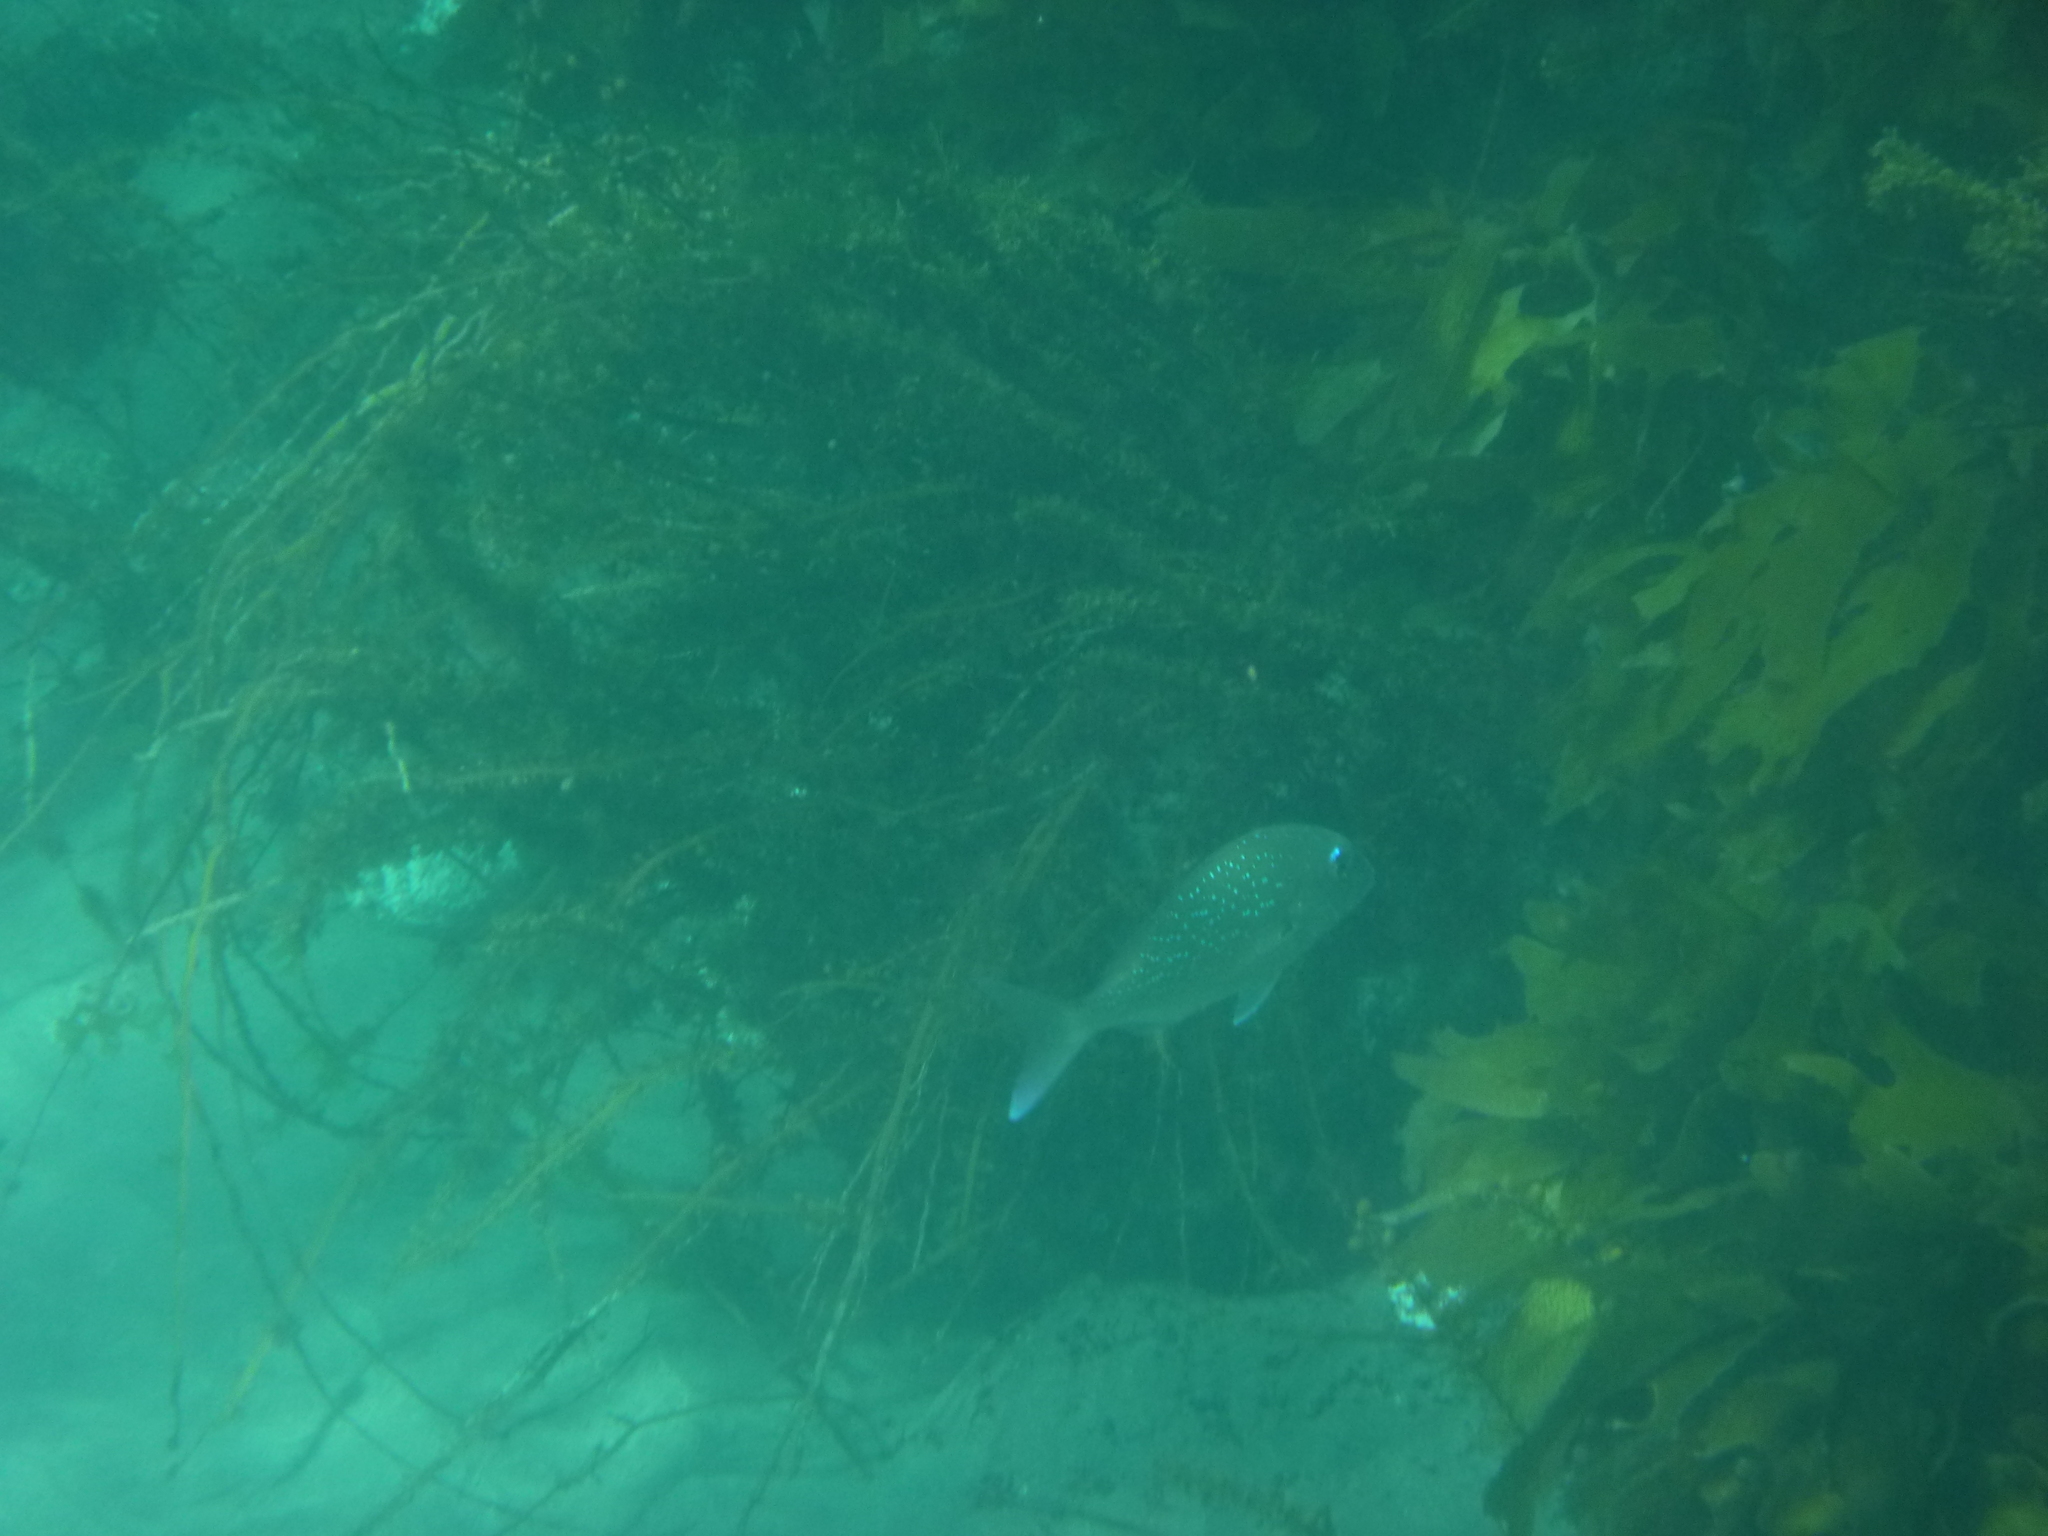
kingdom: Animalia
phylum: Chordata
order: Perciformes
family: Sparidae
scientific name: Sparidae
